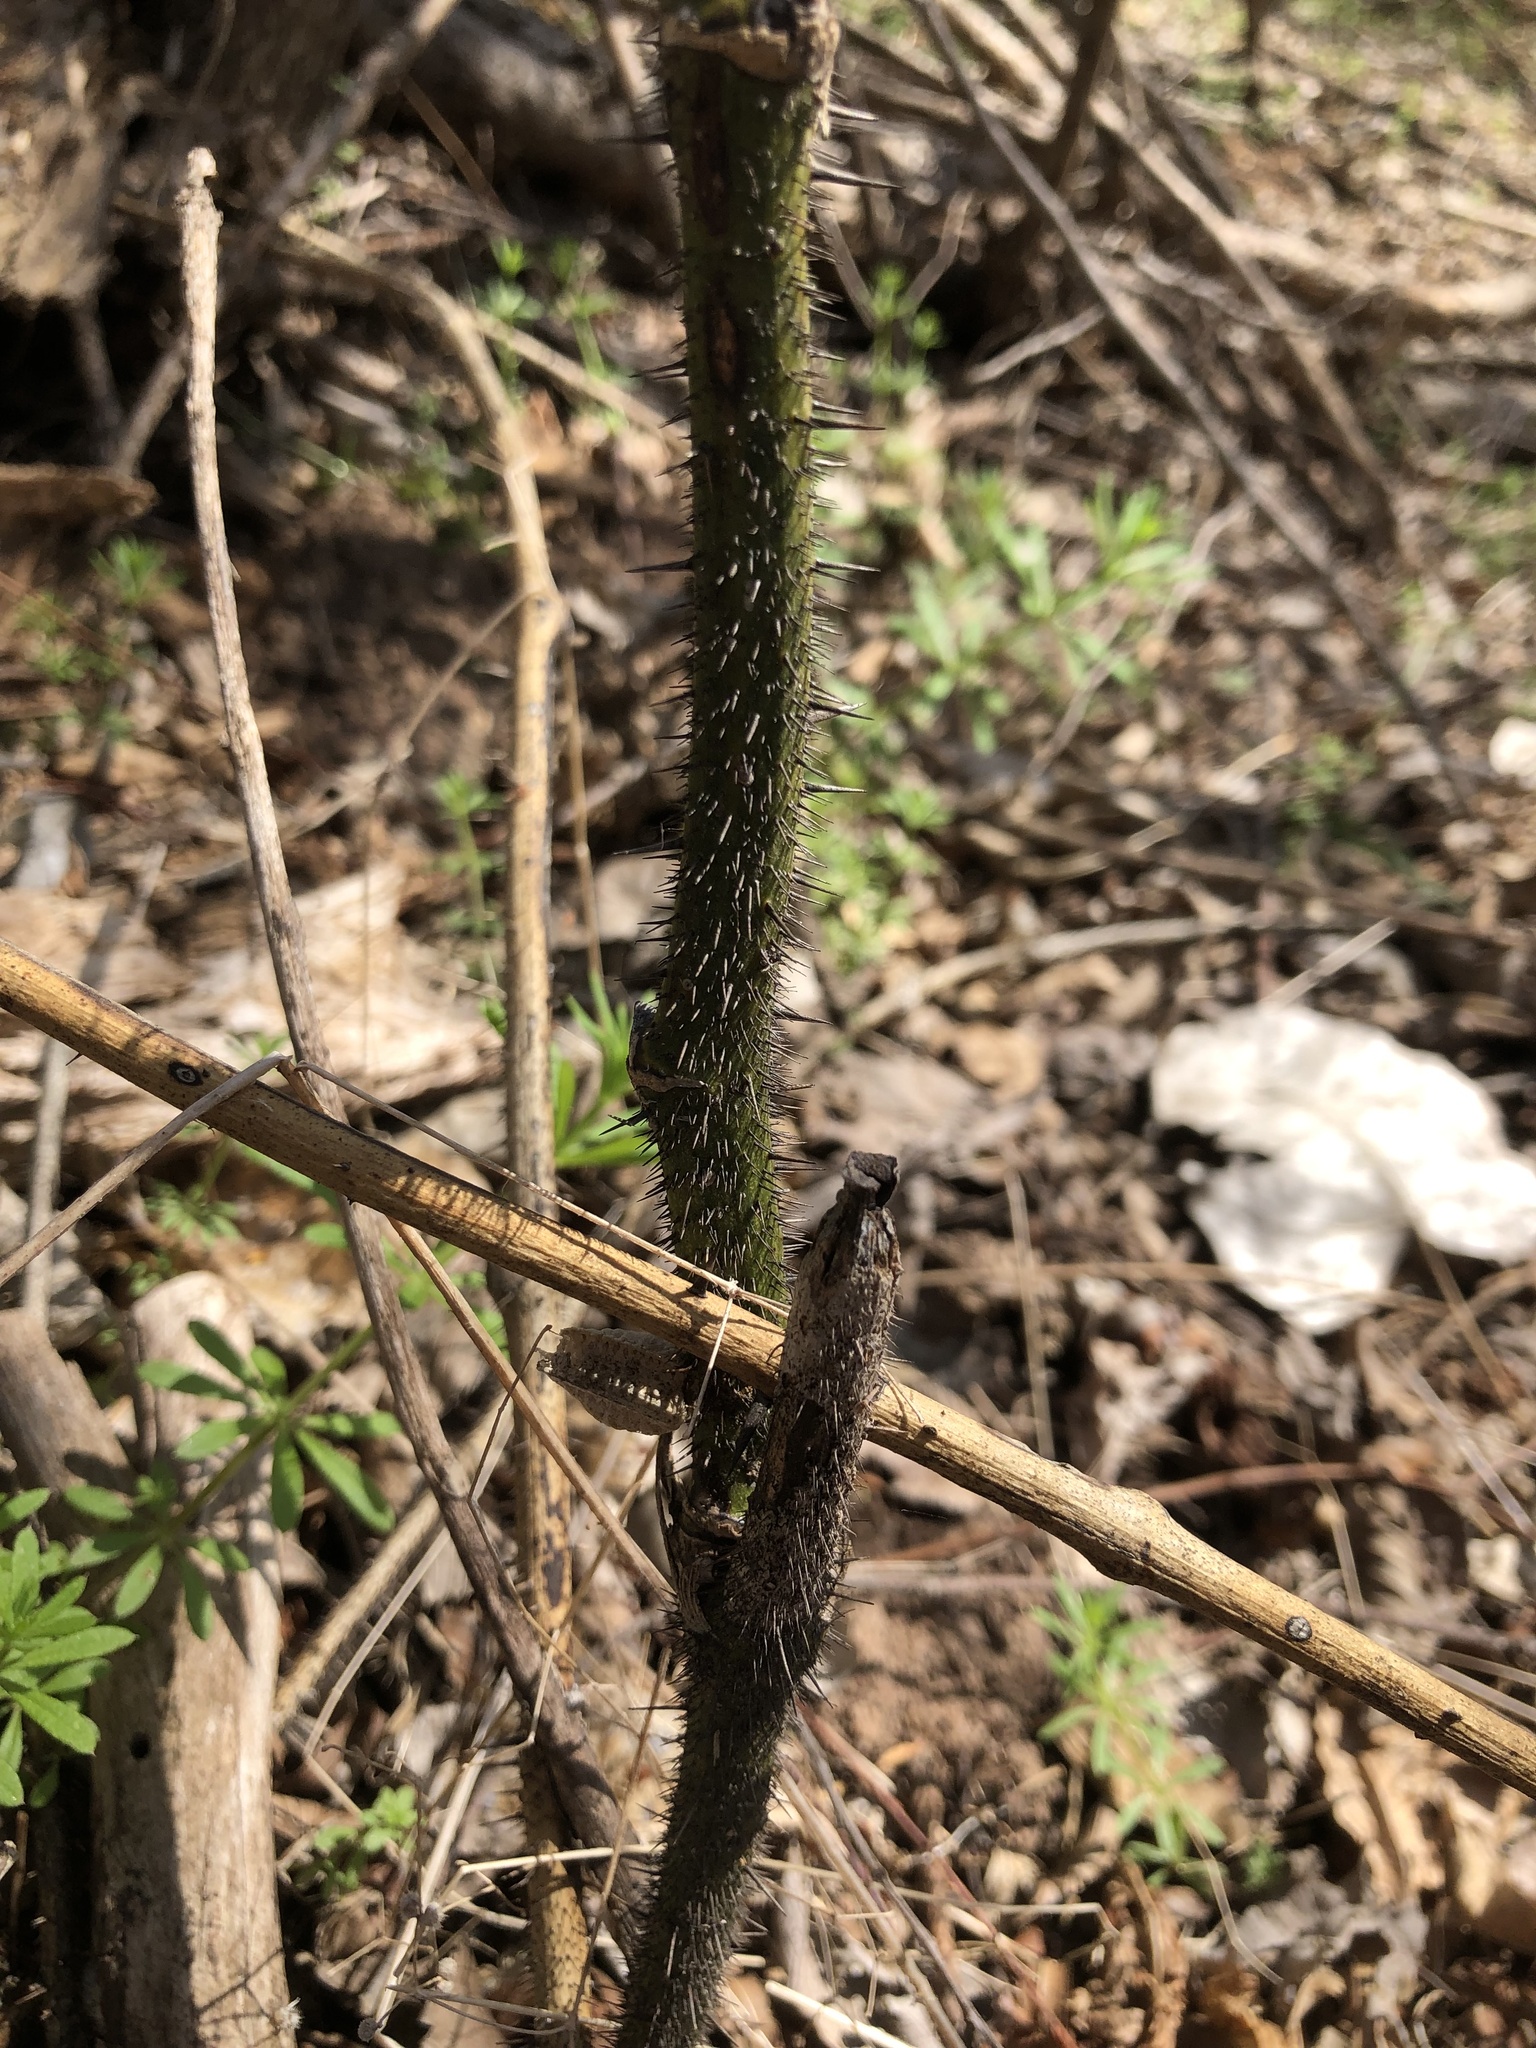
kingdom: Plantae
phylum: Tracheophyta
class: Liliopsida
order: Liliales
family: Smilacaceae
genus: Smilax
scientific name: Smilax tamnoides
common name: Hellfetter
